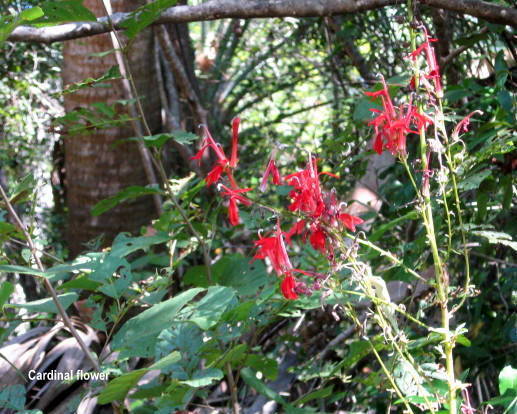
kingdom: Plantae
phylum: Tracheophyta
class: Magnoliopsida
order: Asterales
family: Campanulaceae
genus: Lobelia
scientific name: Lobelia cardinalis
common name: Cardinal flower
